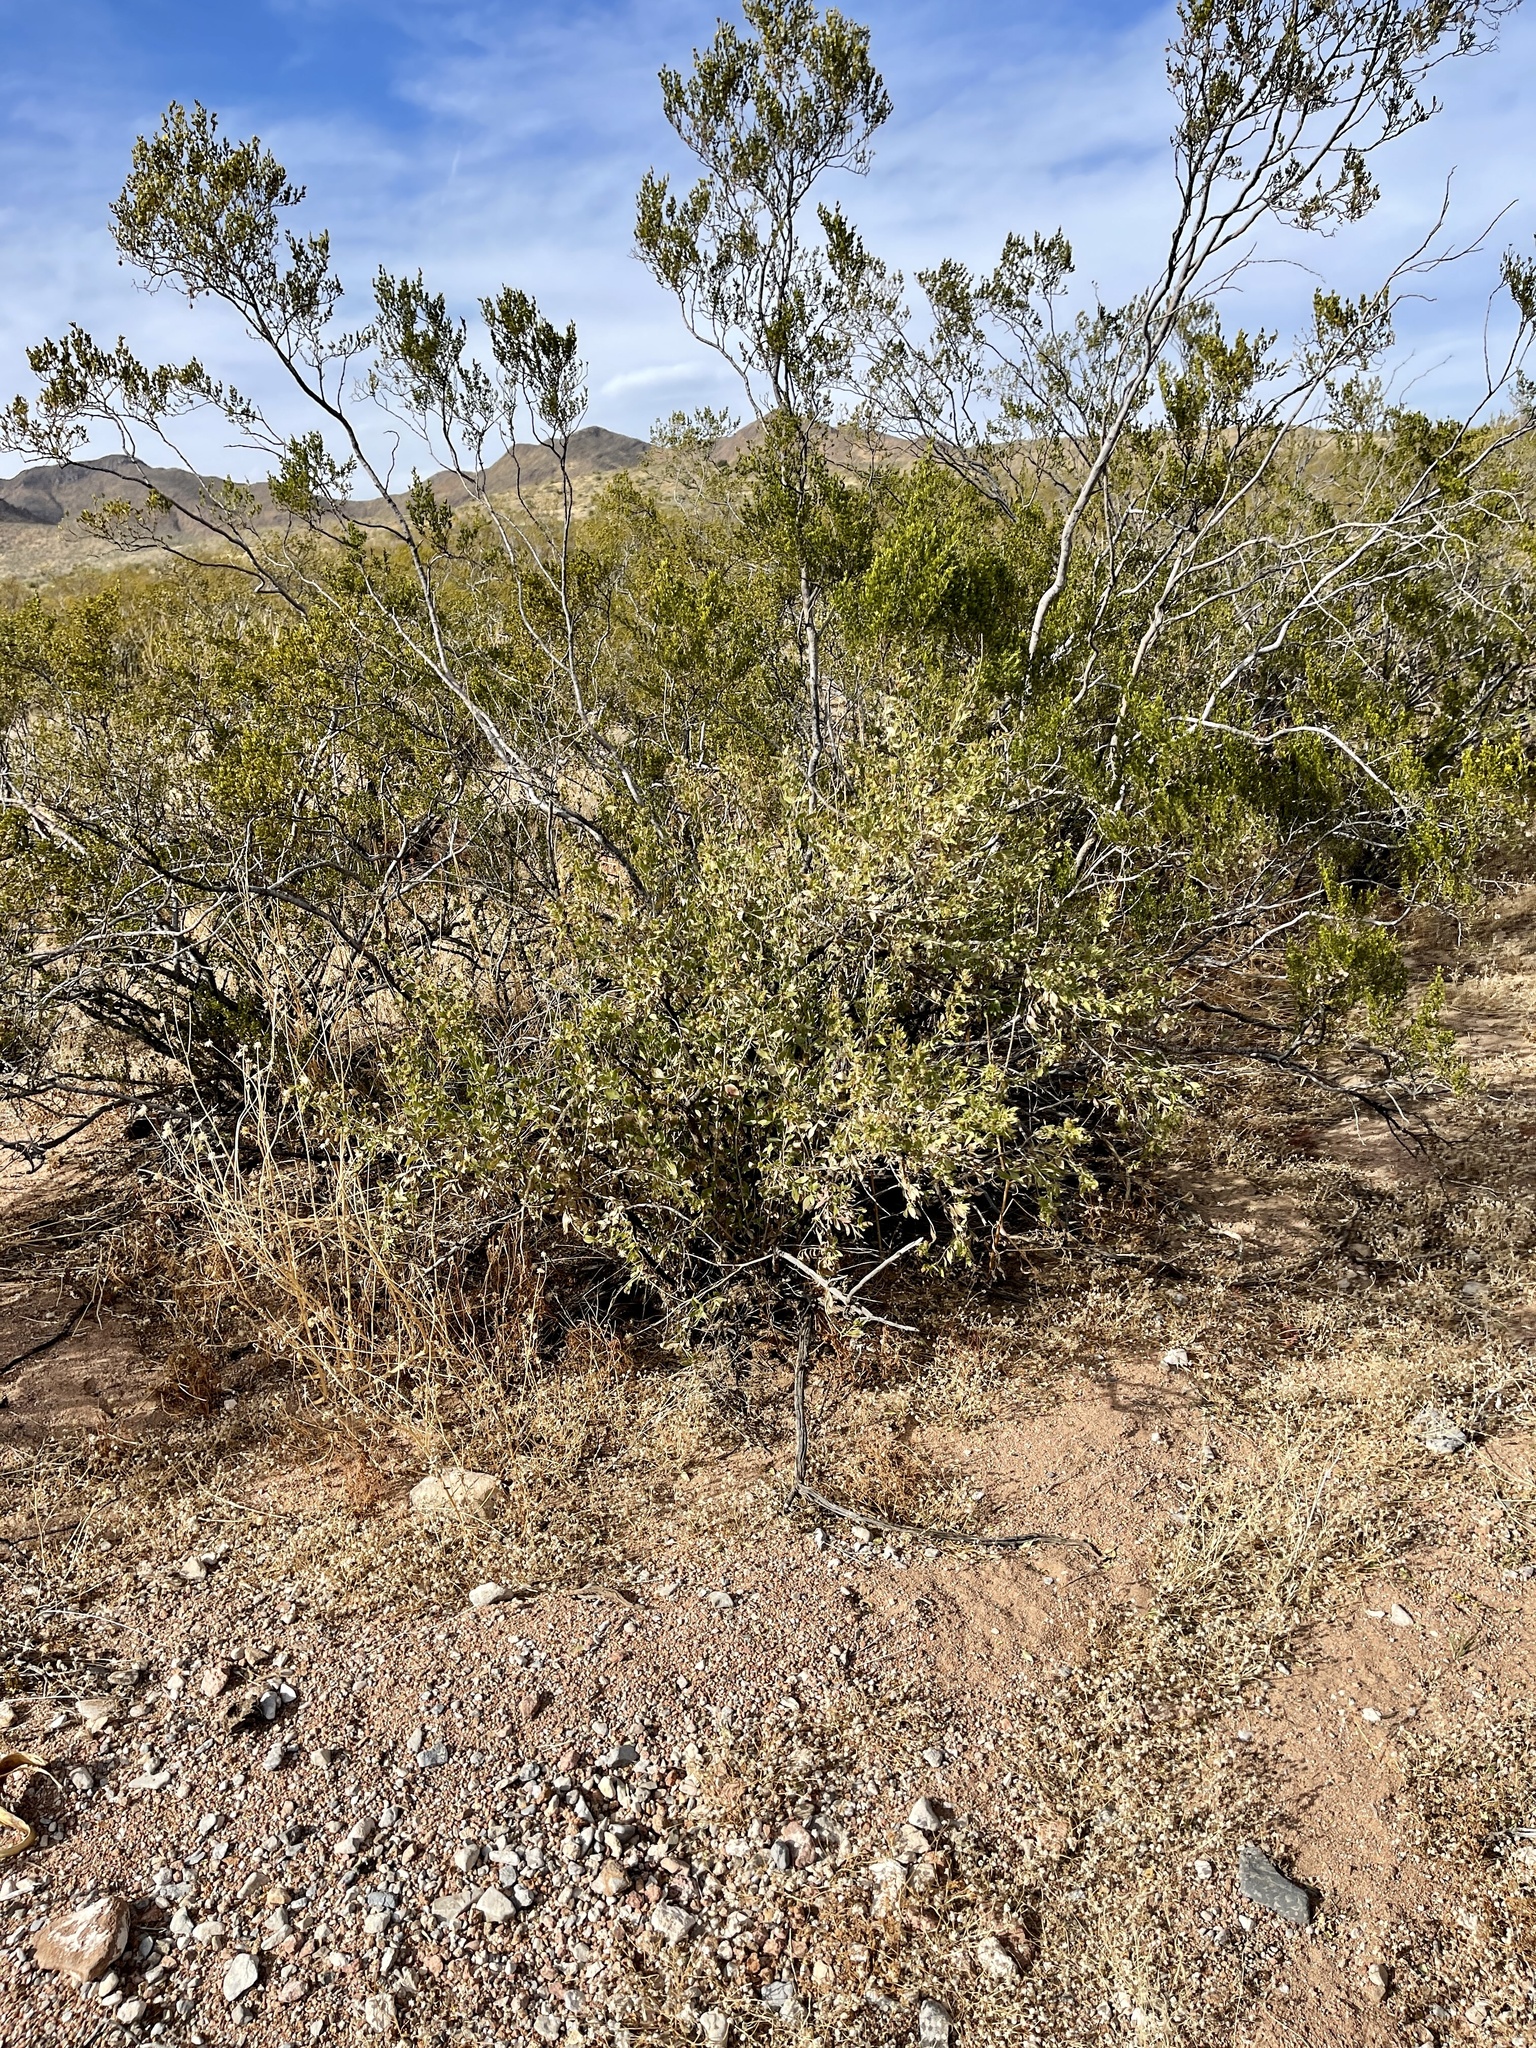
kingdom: Plantae
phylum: Tracheophyta
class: Magnoliopsida
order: Asterales
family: Asteraceae
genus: Flourensia
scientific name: Flourensia cernua
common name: Varnishbush
